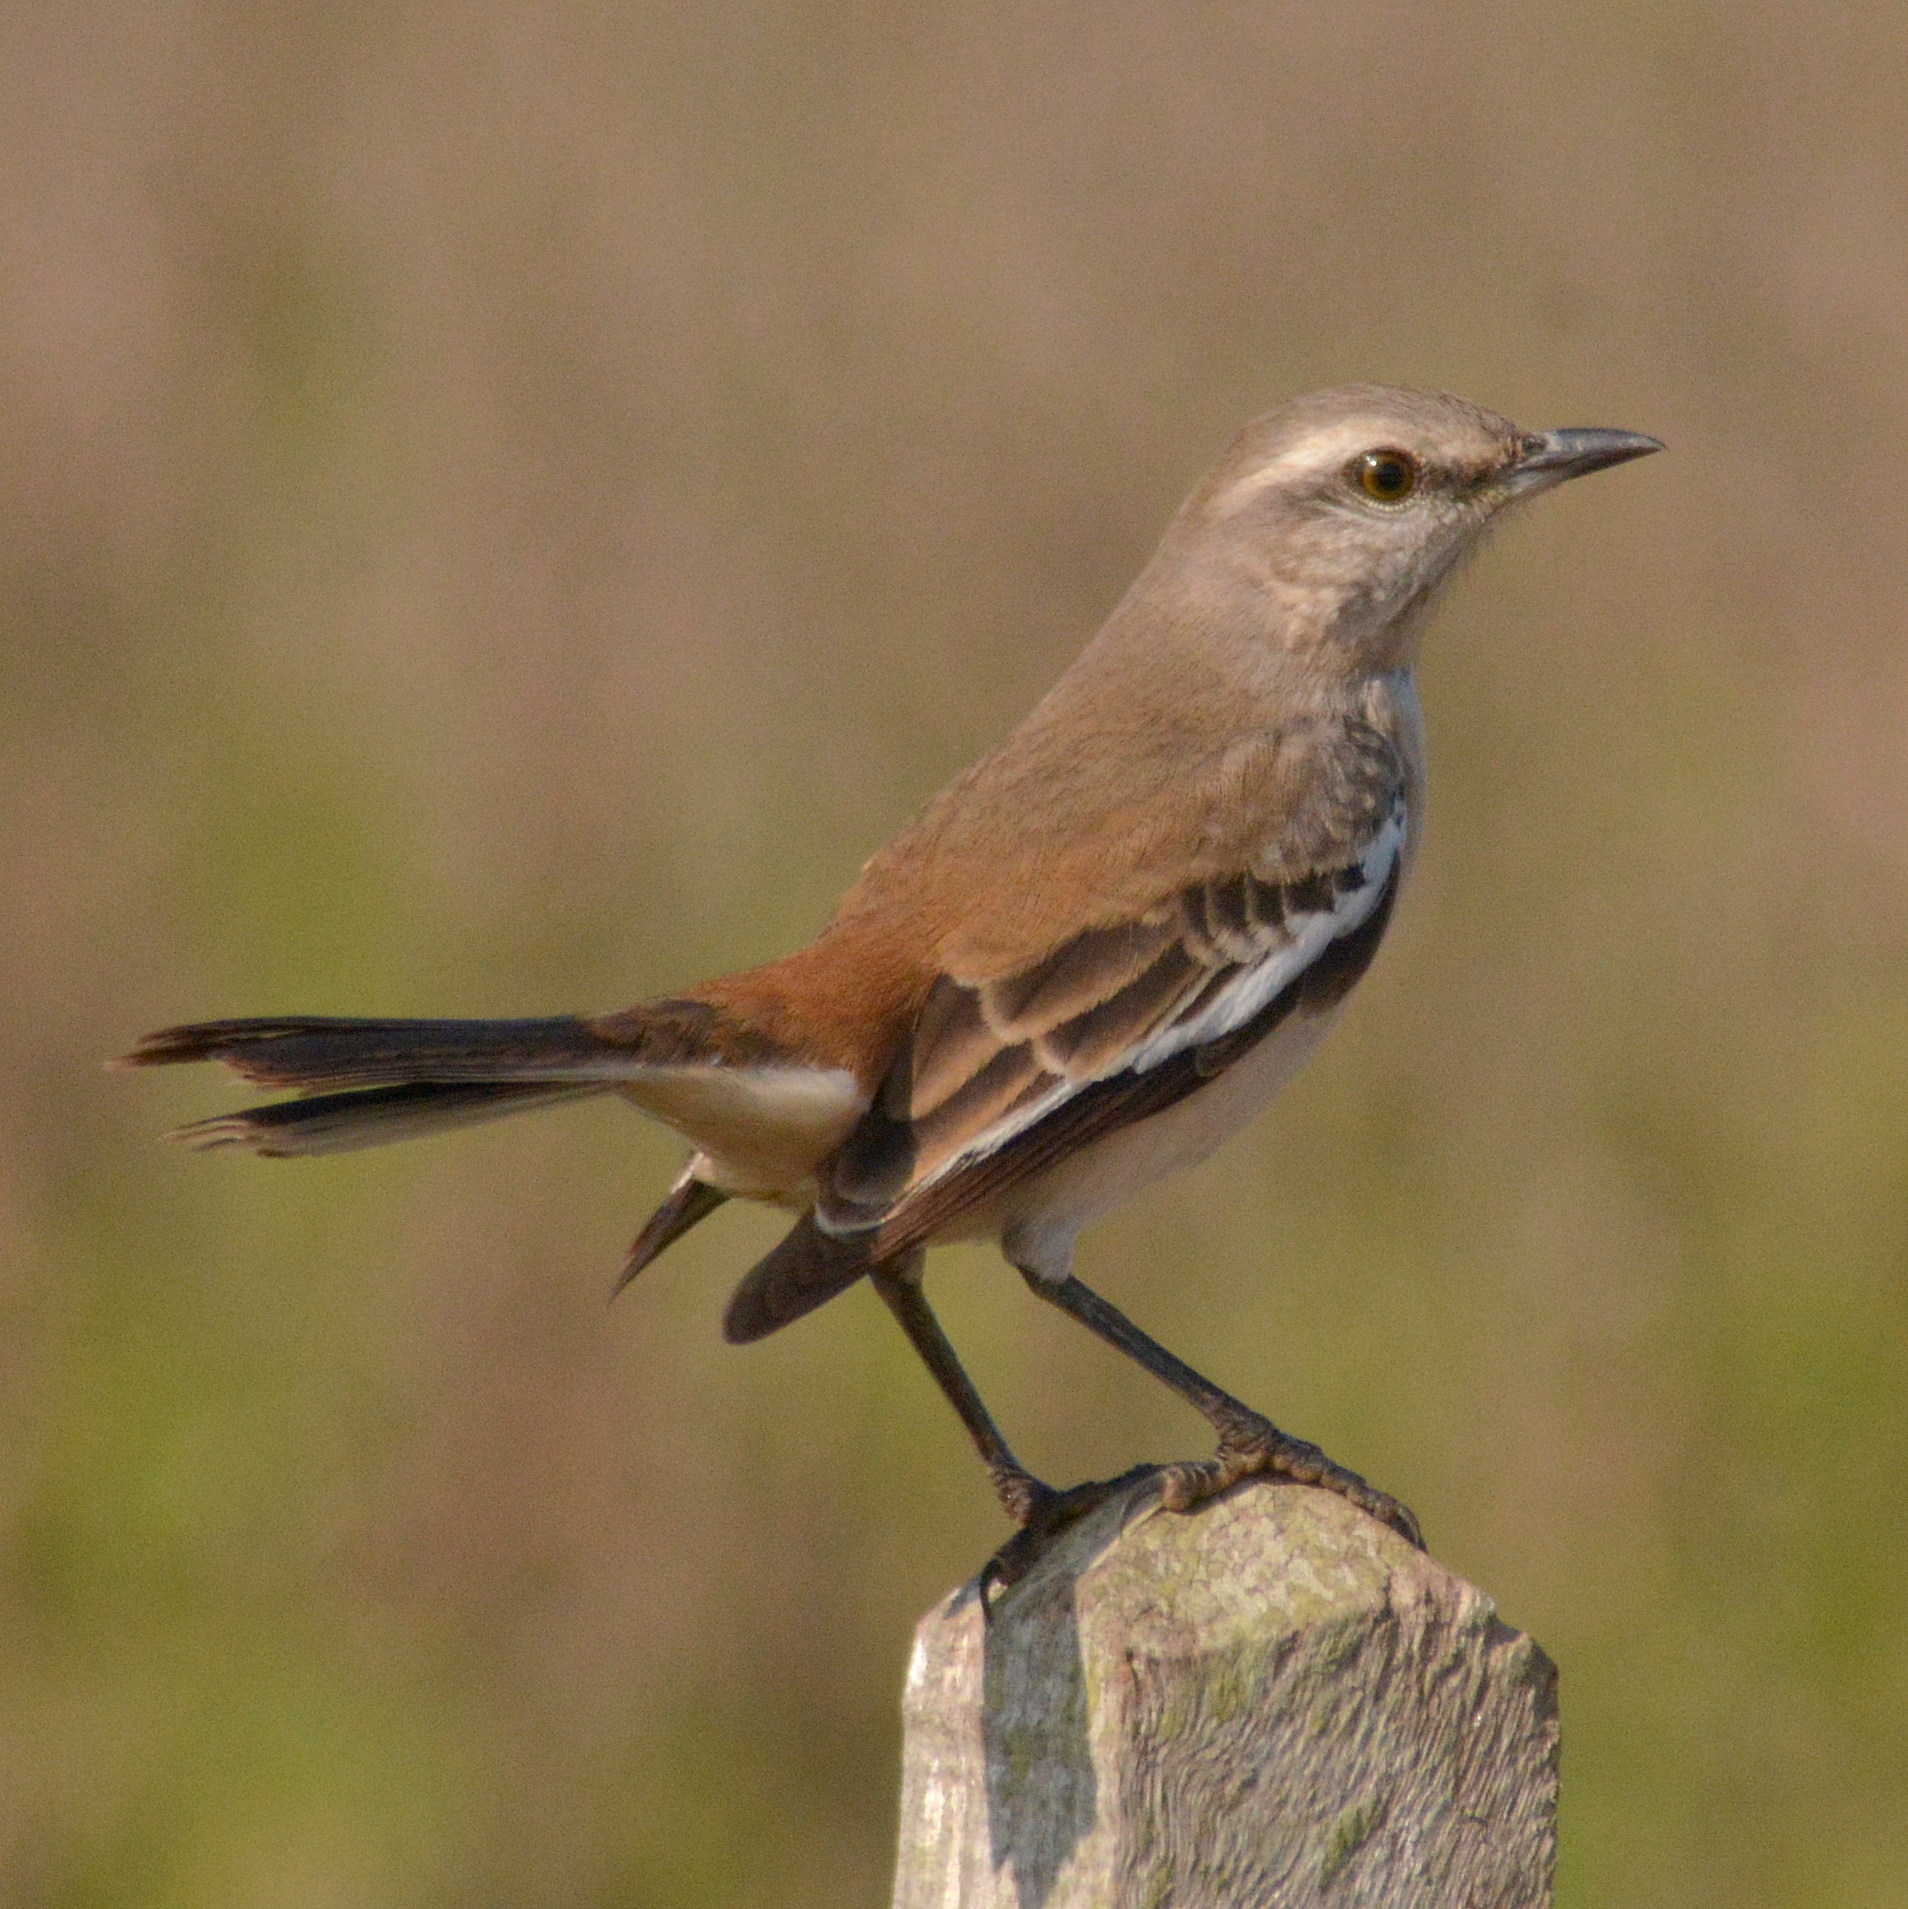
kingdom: Animalia
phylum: Chordata
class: Aves
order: Passeriformes
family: Mimidae
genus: Mimus
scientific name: Mimus triurus
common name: White-banded mockingbird
